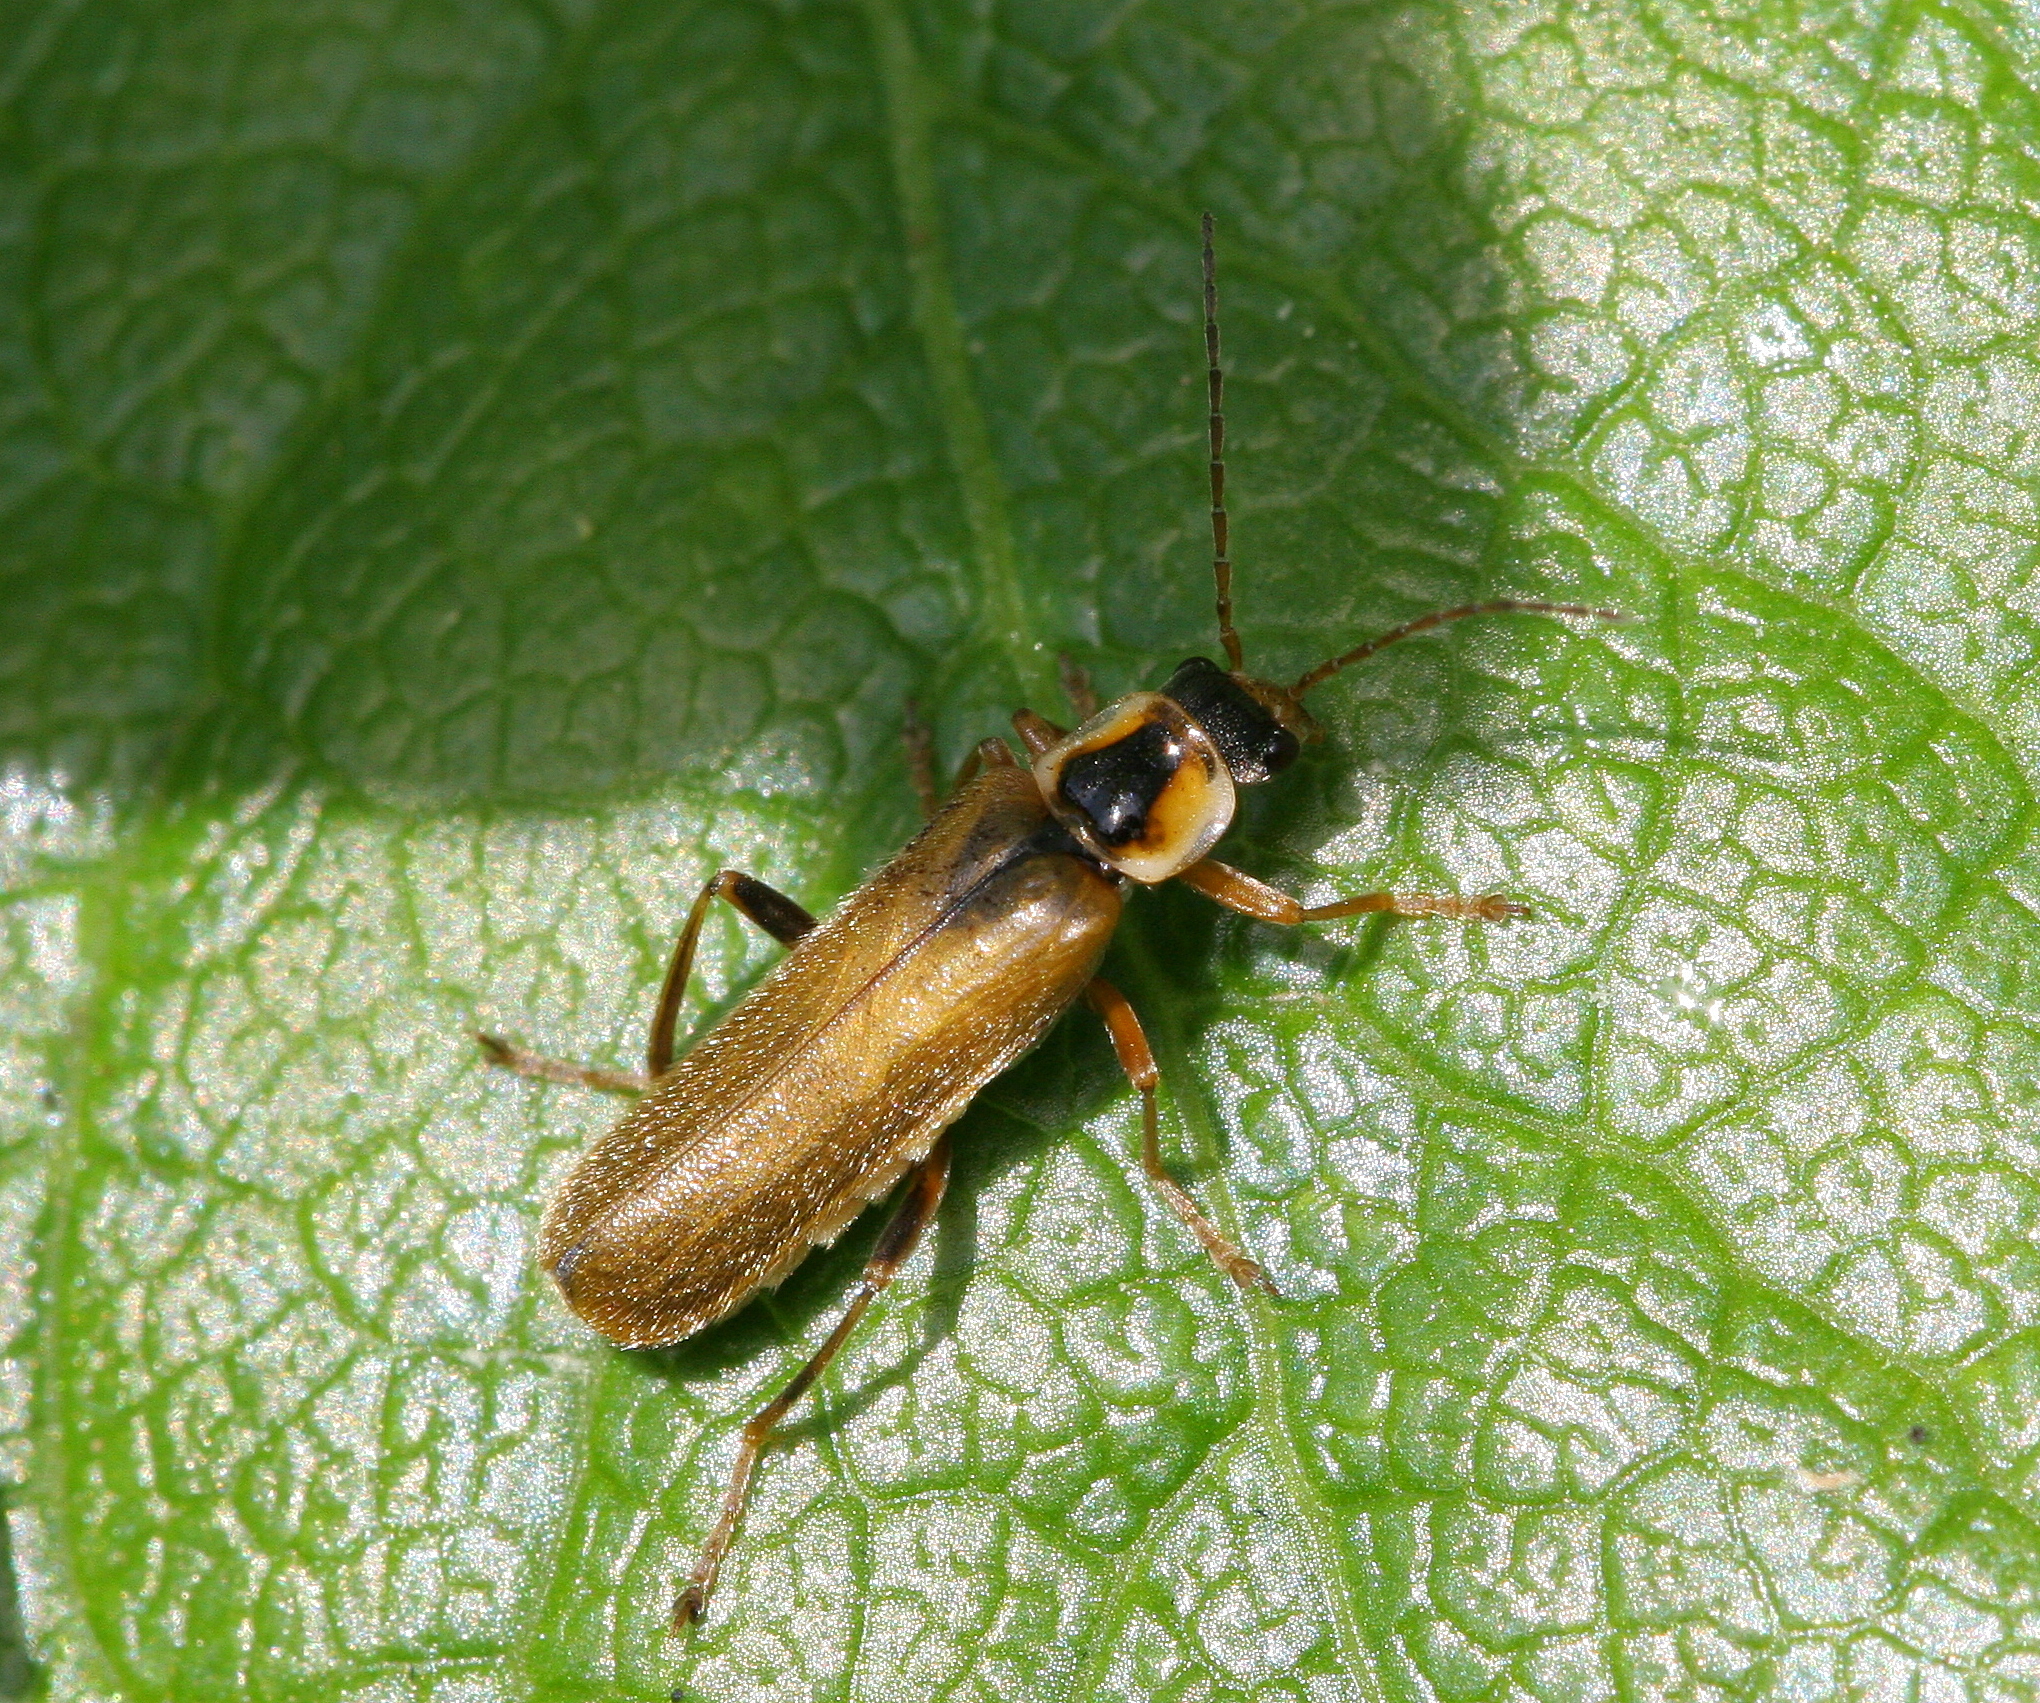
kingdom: Animalia
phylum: Arthropoda
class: Insecta
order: Coleoptera
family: Cantharidae
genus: Cantharis
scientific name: Cantharis decipiens
